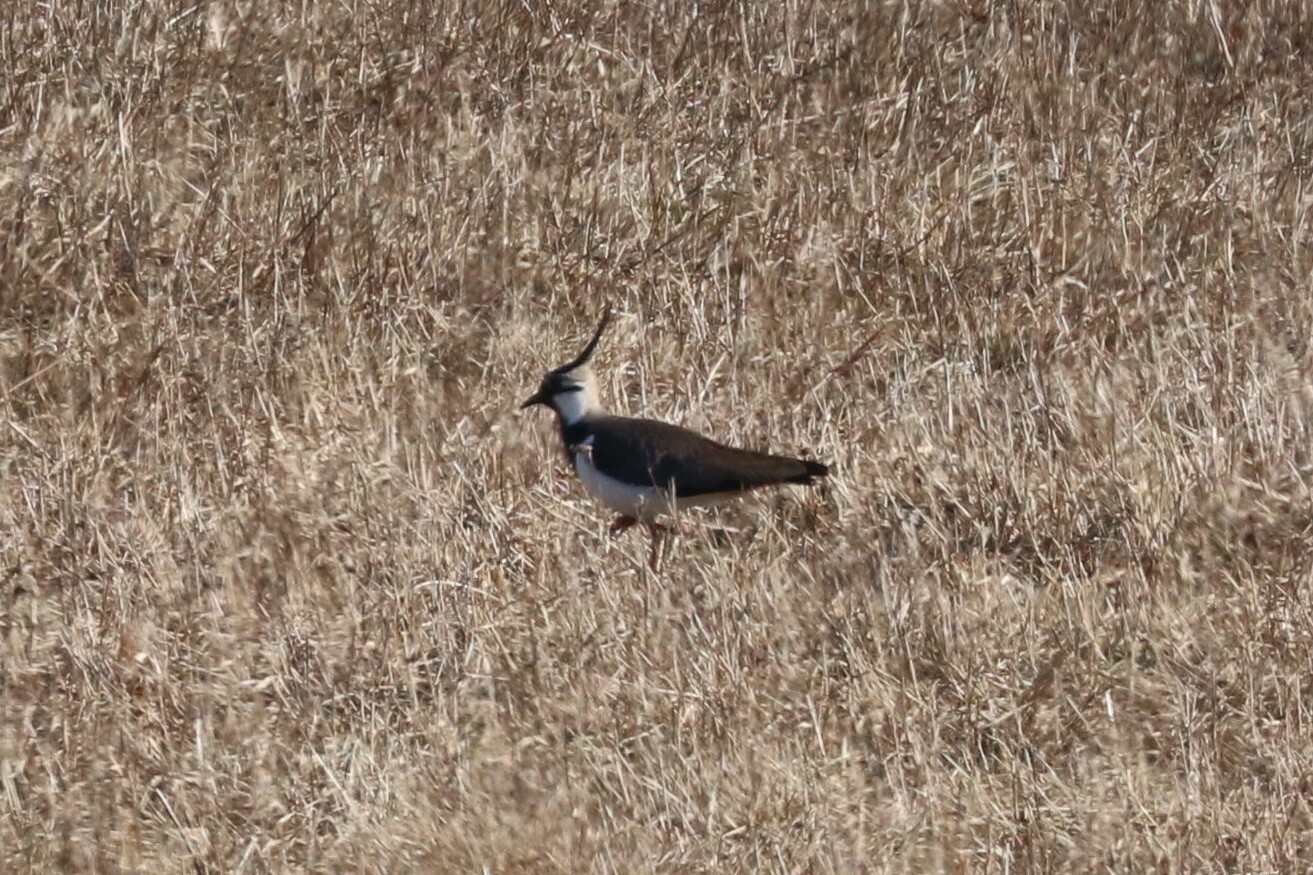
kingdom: Animalia
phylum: Chordata
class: Aves
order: Charadriiformes
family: Charadriidae
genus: Vanellus
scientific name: Vanellus vanellus
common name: Northern lapwing
